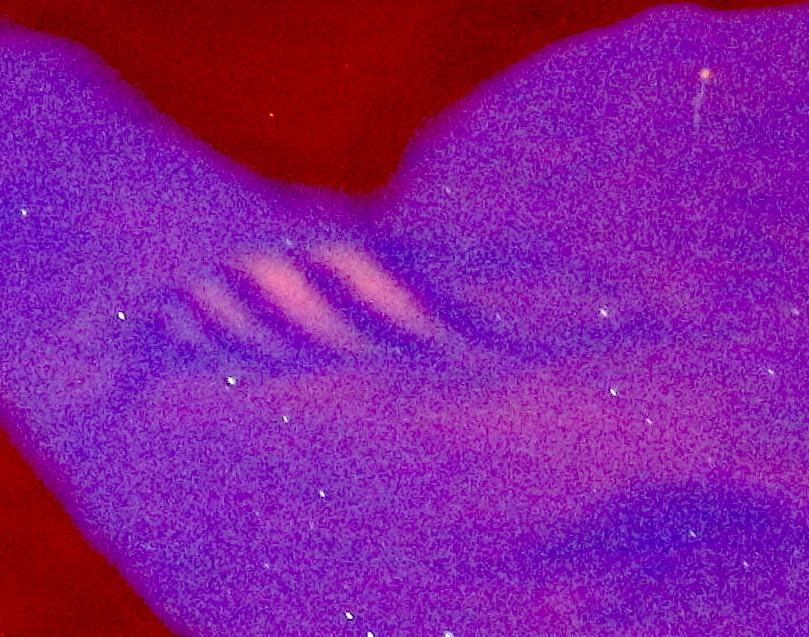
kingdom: Animalia
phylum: Chordata
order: Perciformes
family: Pomacentridae
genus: Abudefduf
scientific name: Abudefduf saxatilis
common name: Sergeant major
